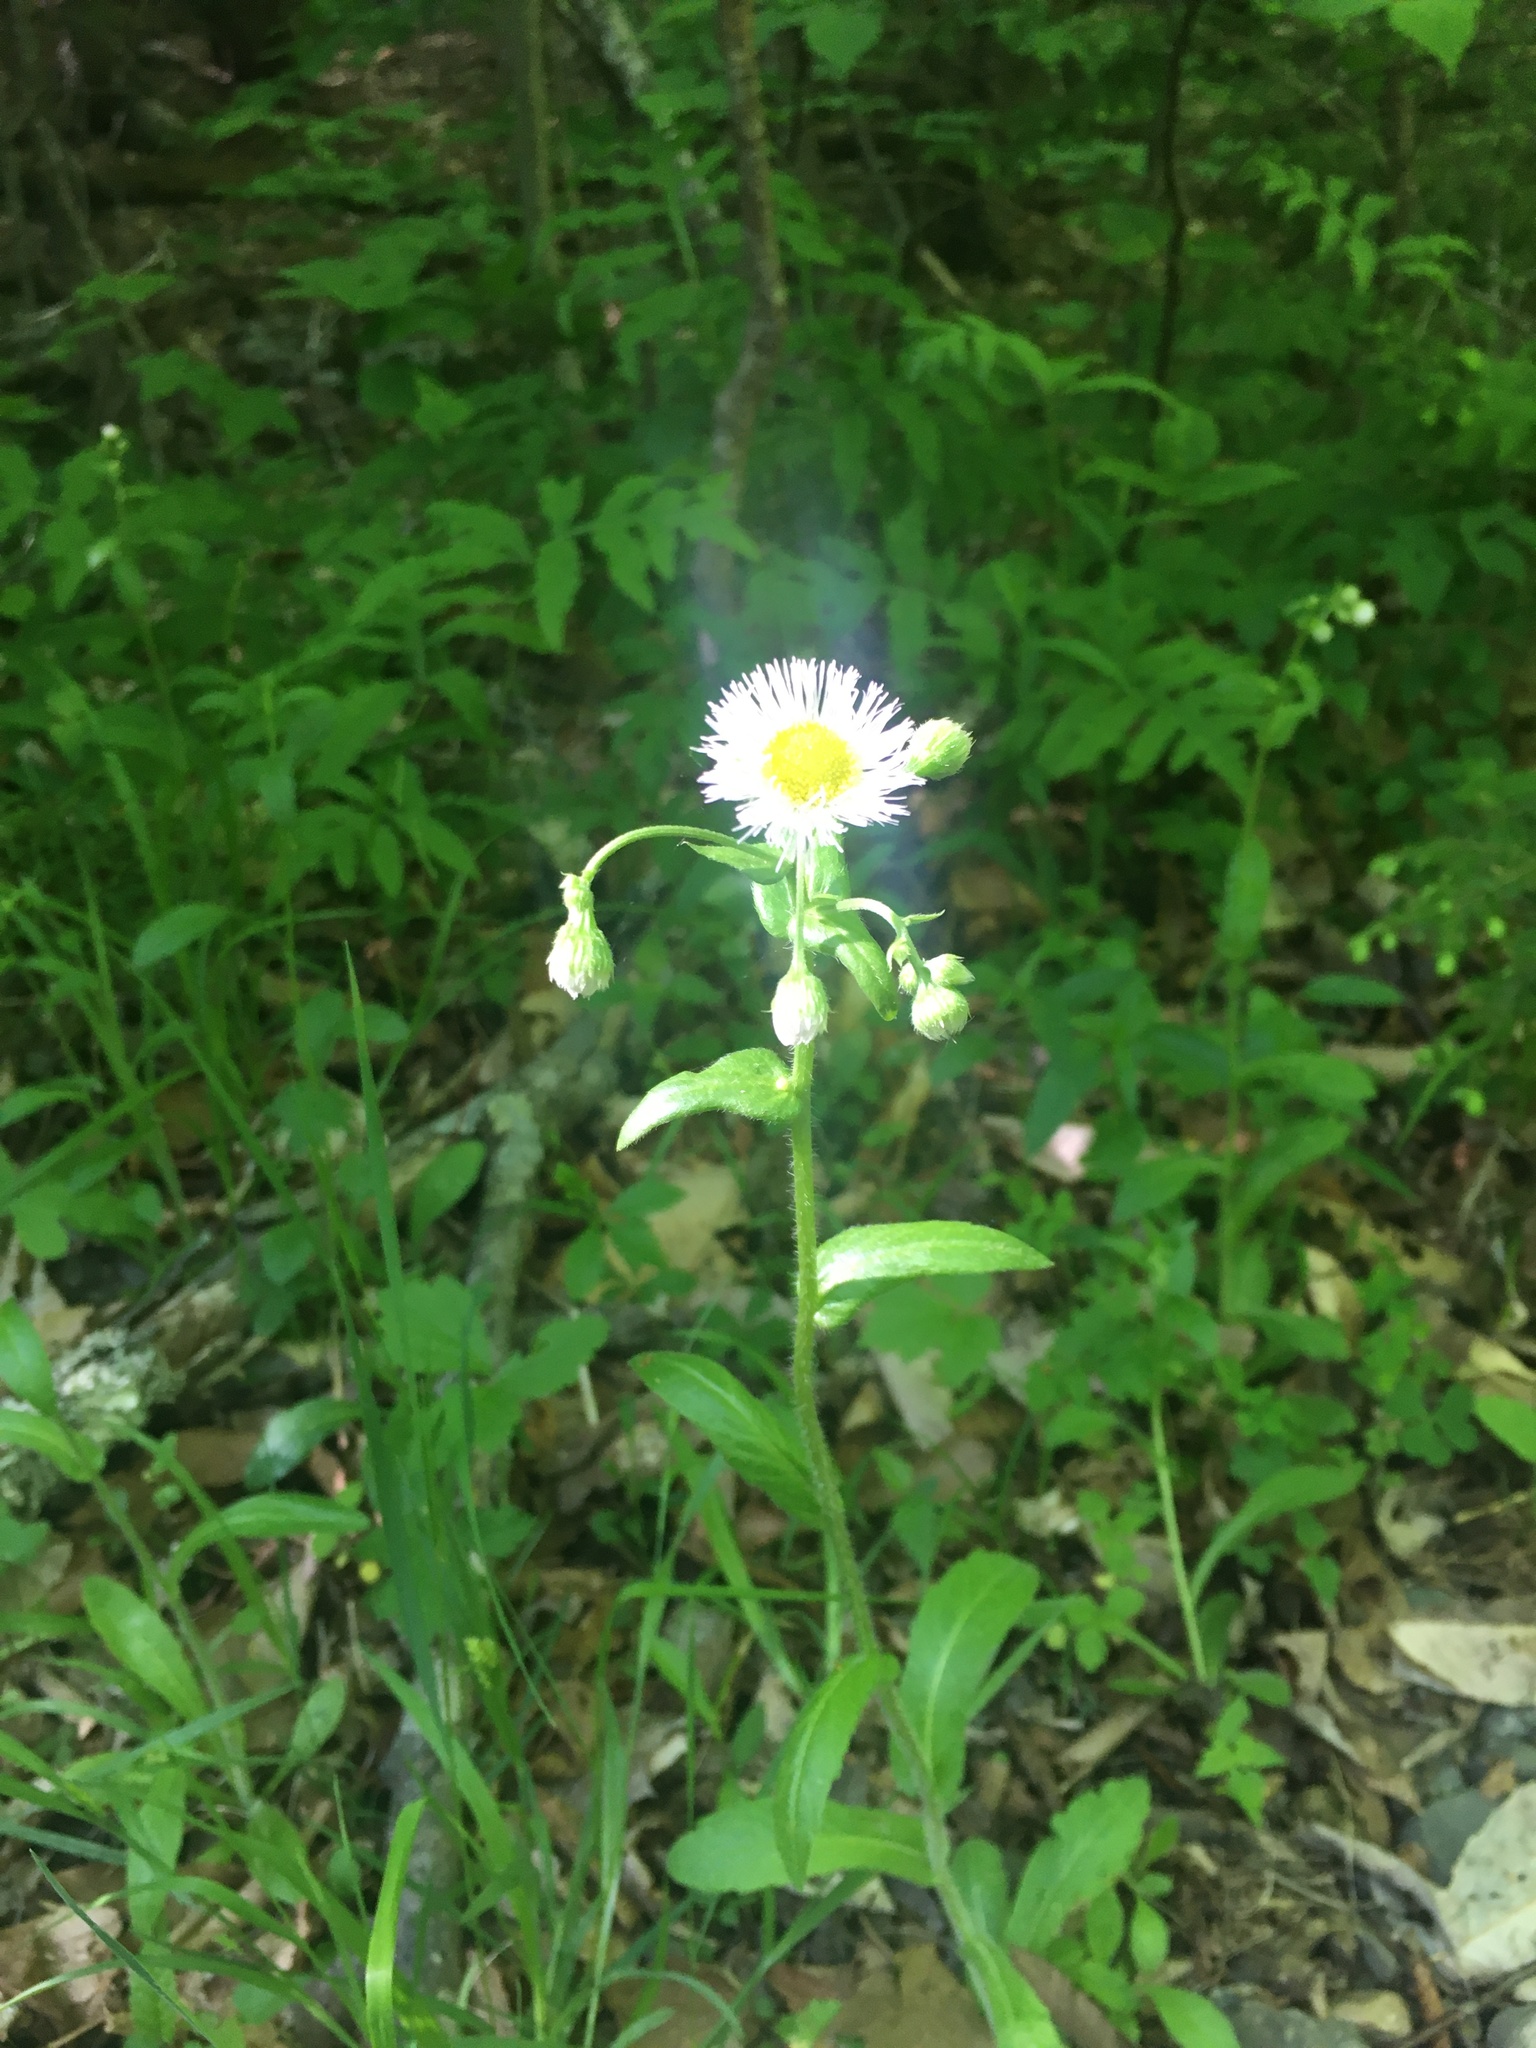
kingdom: Plantae
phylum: Tracheophyta
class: Magnoliopsida
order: Asterales
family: Asteraceae
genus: Erigeron
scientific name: Erigeron philadelphicus
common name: Robin's-plantain
